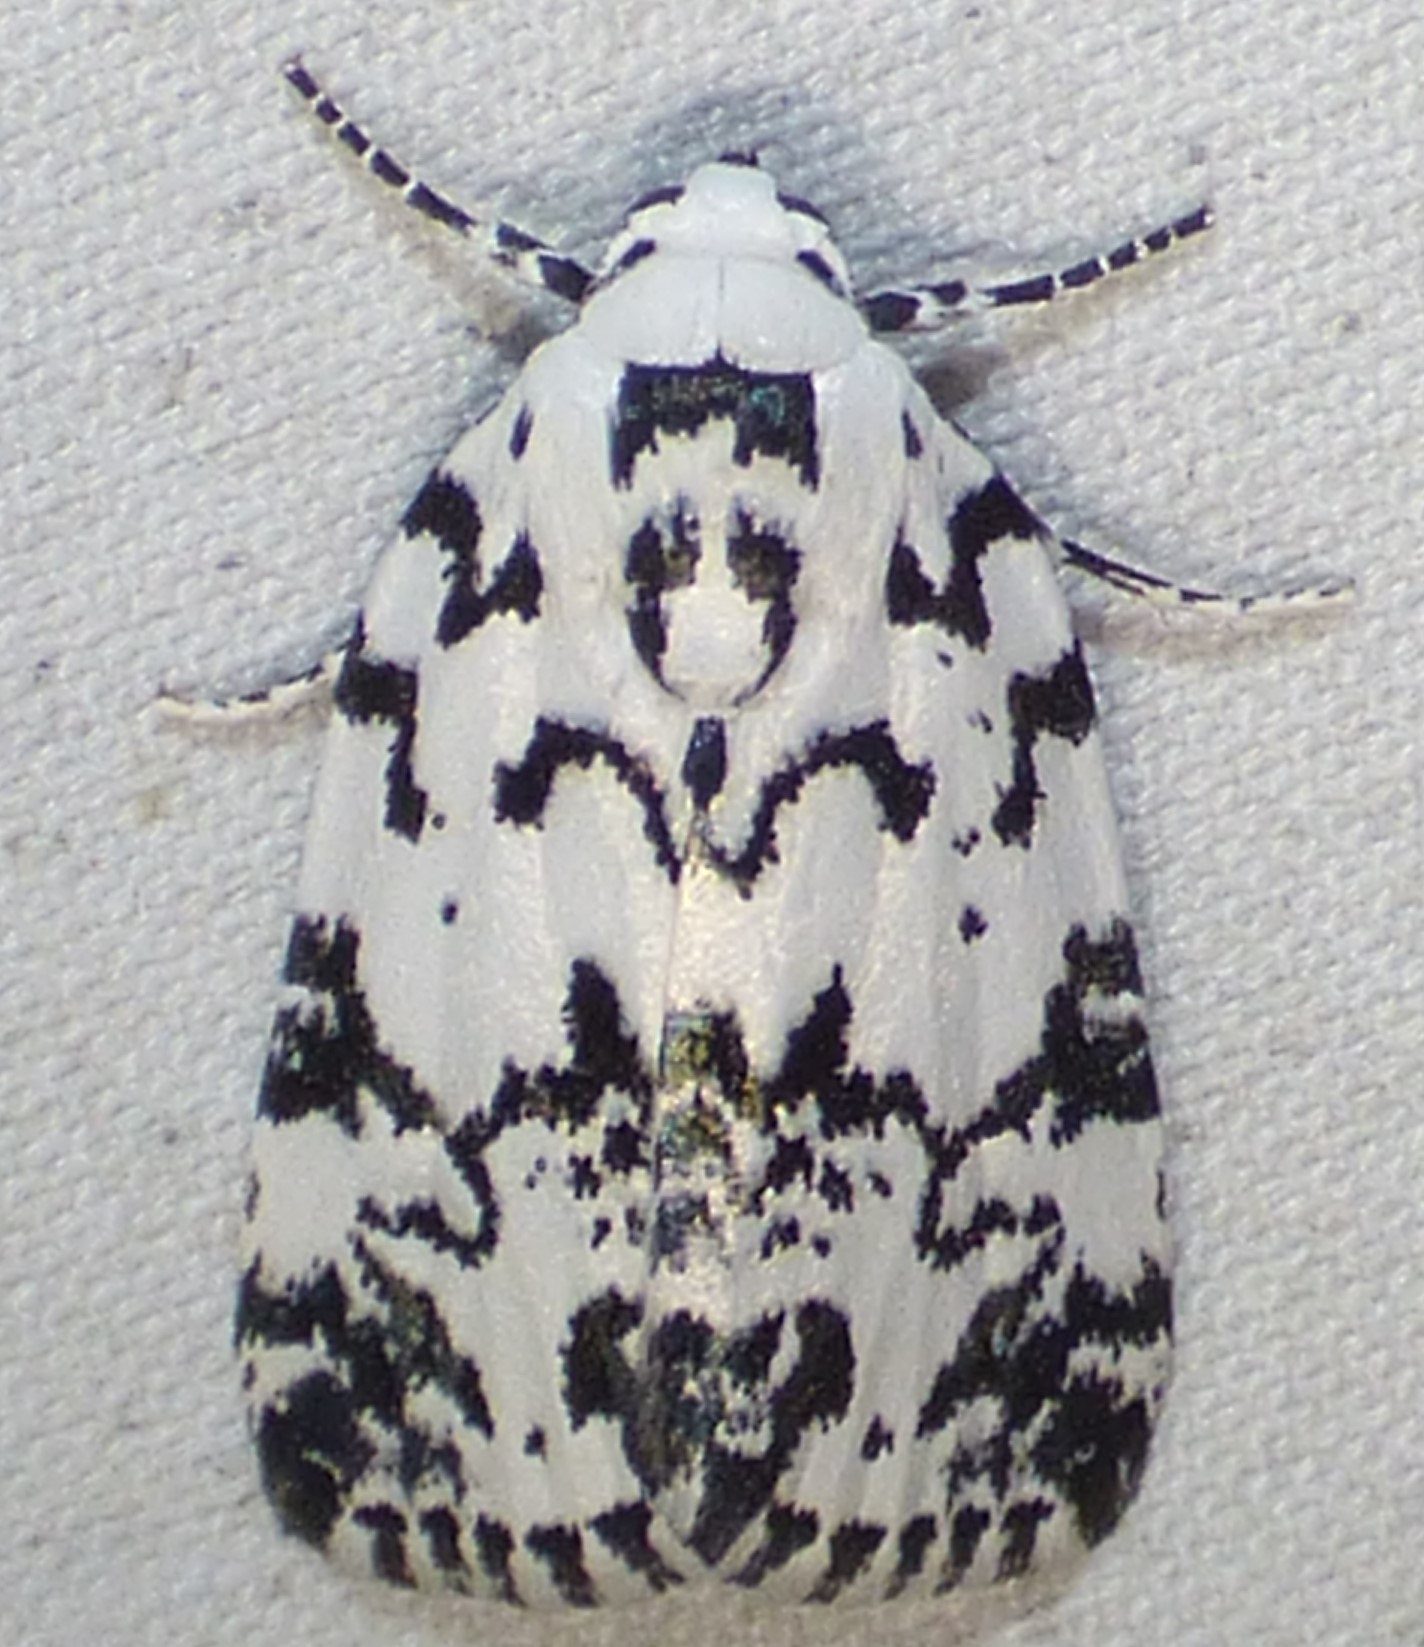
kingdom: Animalia
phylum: Arthropoda
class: Insecta
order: Lepidoptera
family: Noctuidae
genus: Polygrammate
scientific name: Polygrammate hebraeicum
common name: Hebrew moth
